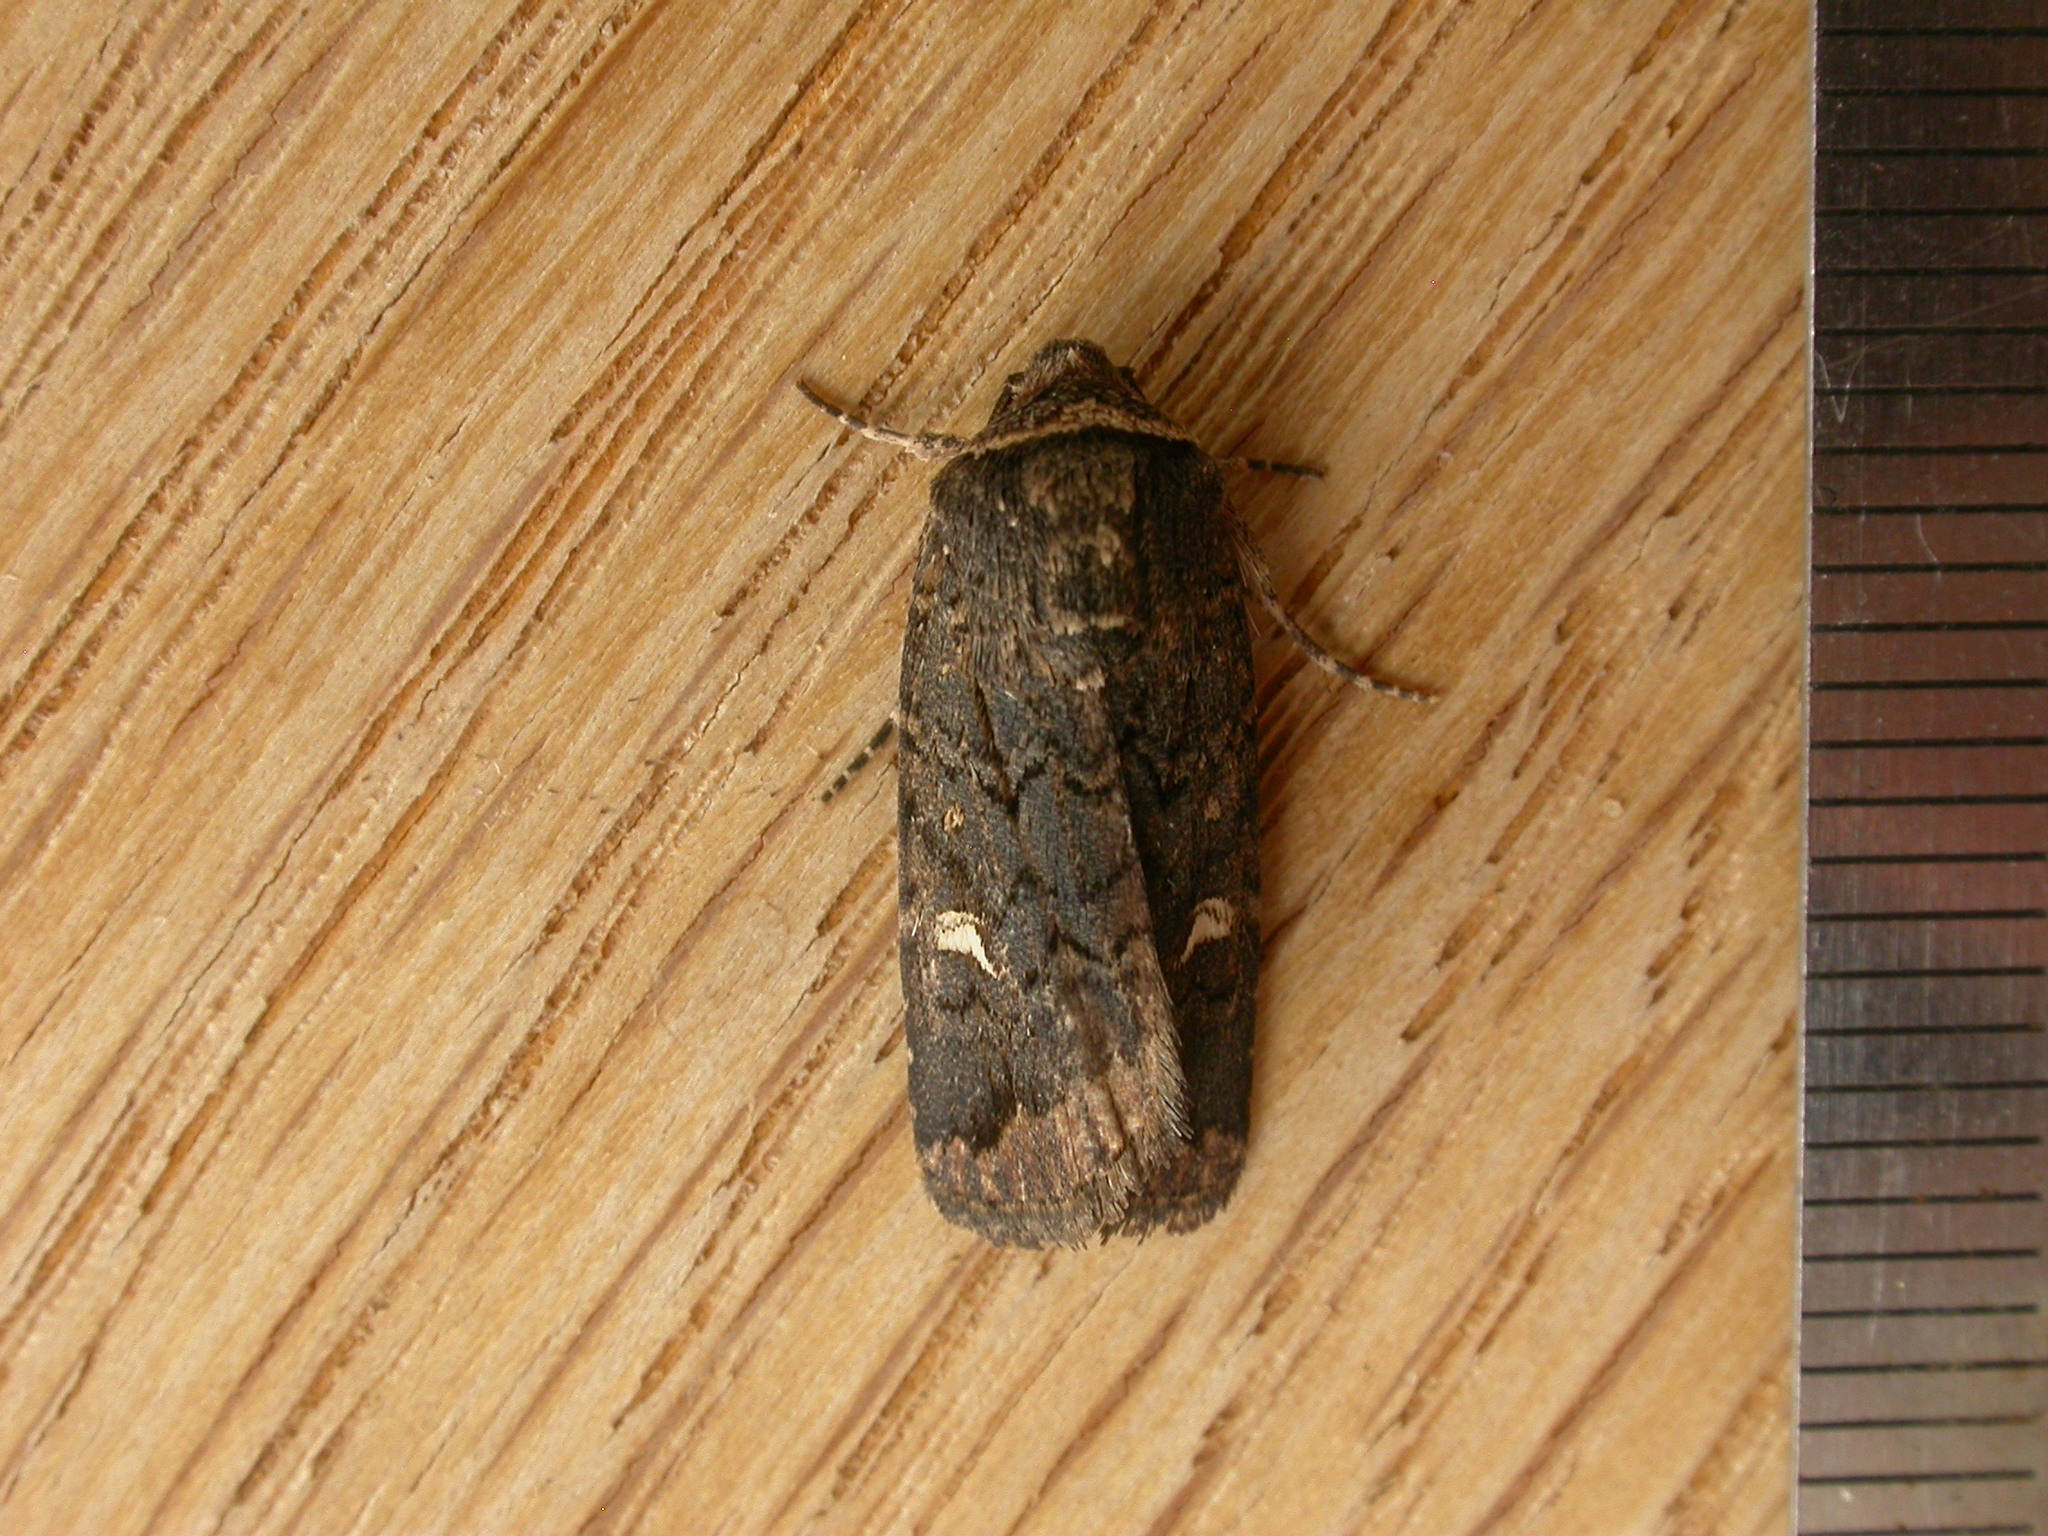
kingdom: Animalia
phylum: Arthropoda
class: Insecta
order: Lepidoptera
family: Noctuidae
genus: Proteuxoa
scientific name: Proteuxoa bistrigula
